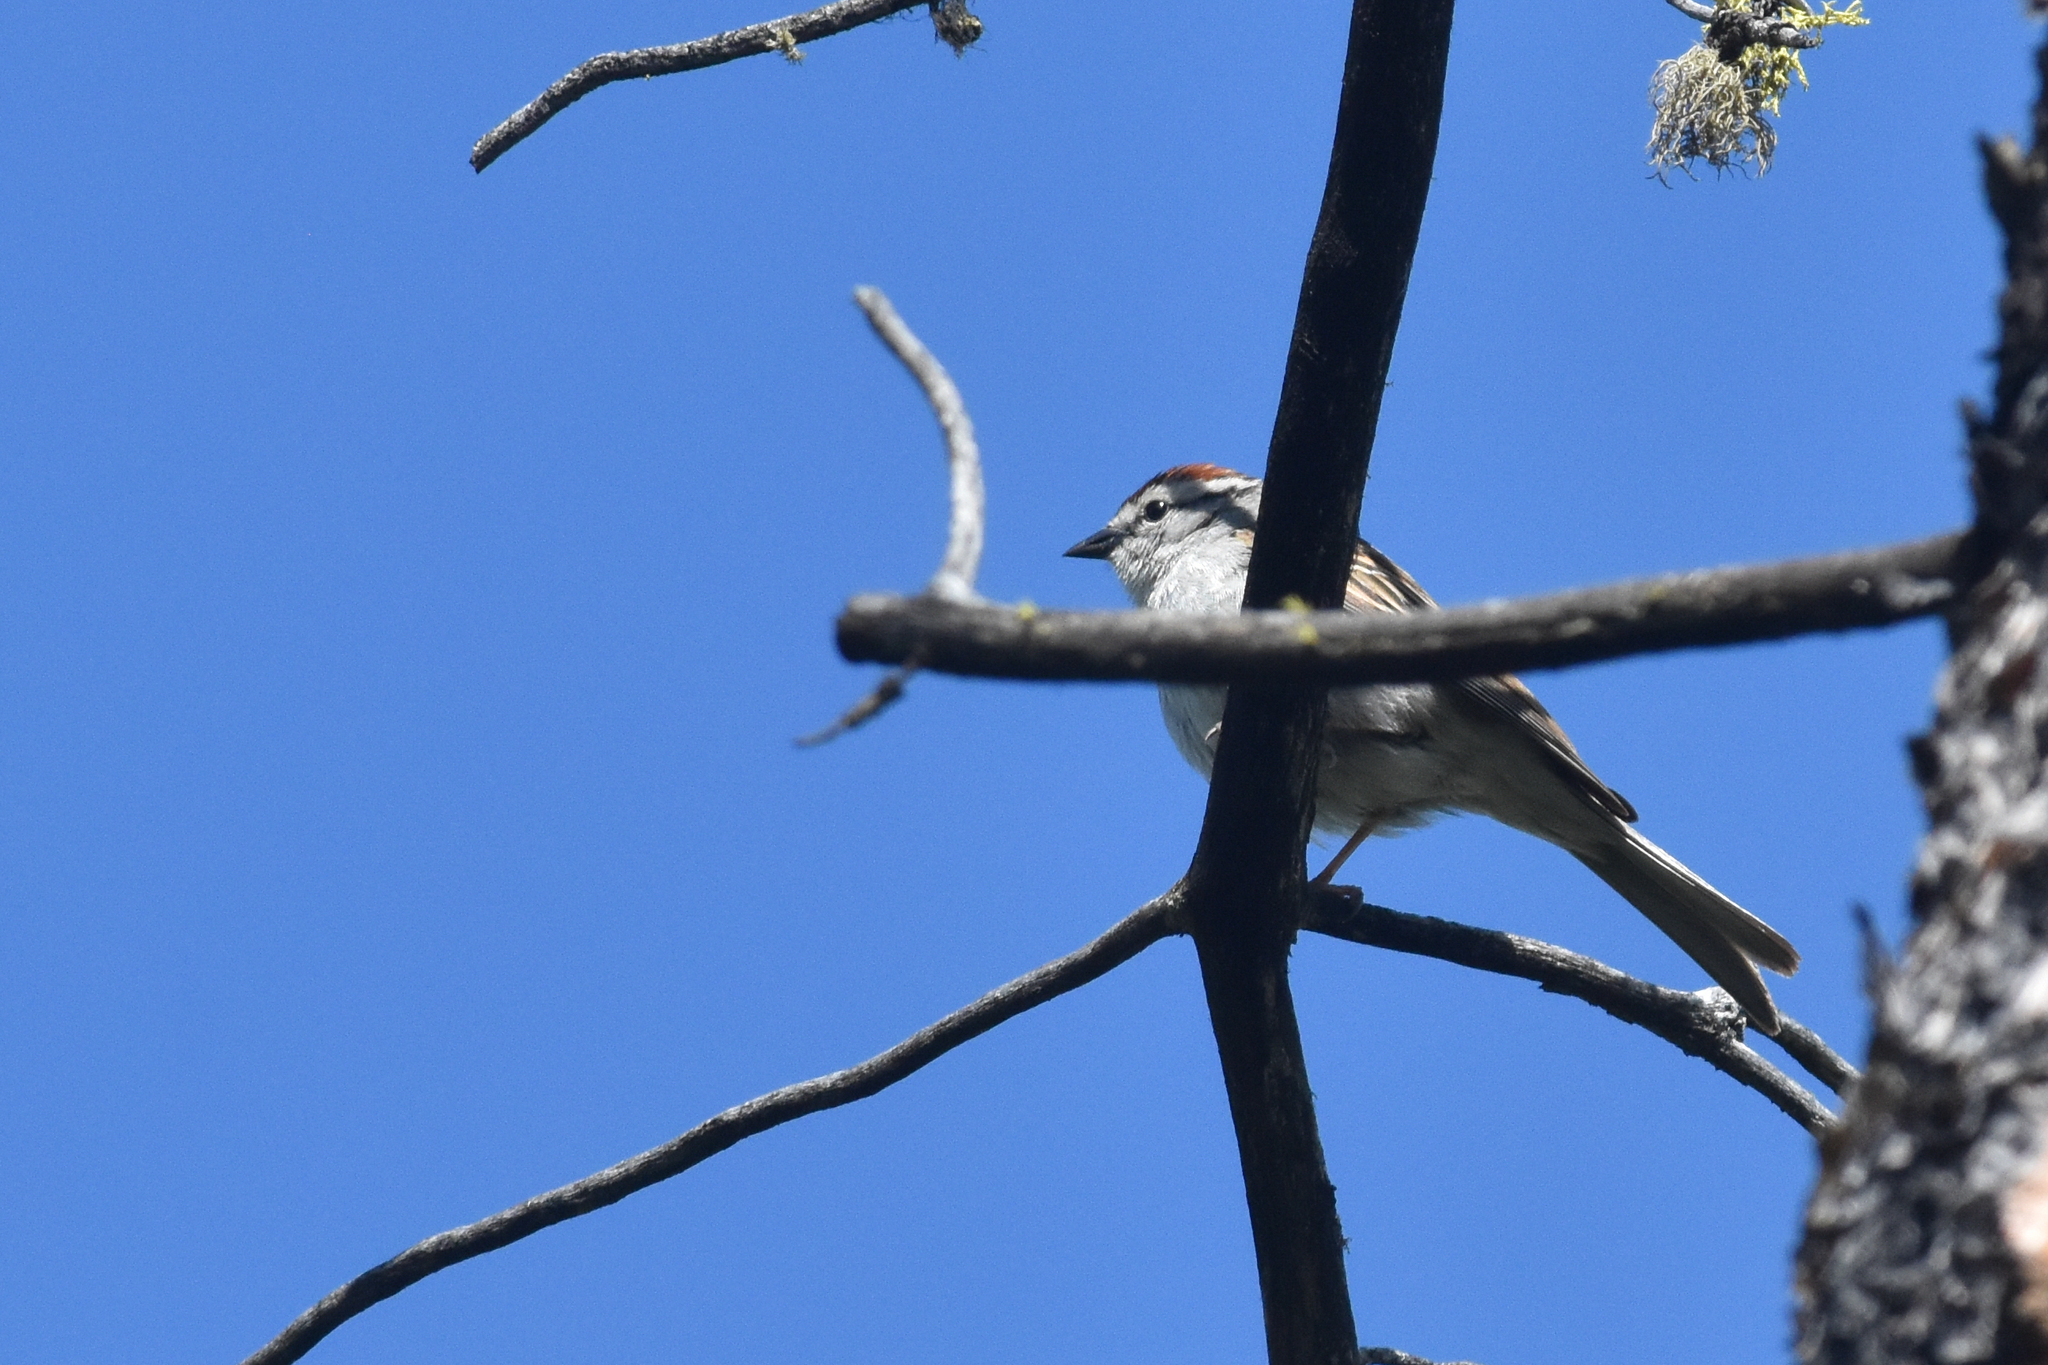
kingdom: Animalia
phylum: Chordata
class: Aves
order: Passeriformes
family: Passerellidae
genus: Spizella
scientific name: Spizella passerina
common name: Chipping sparrow
